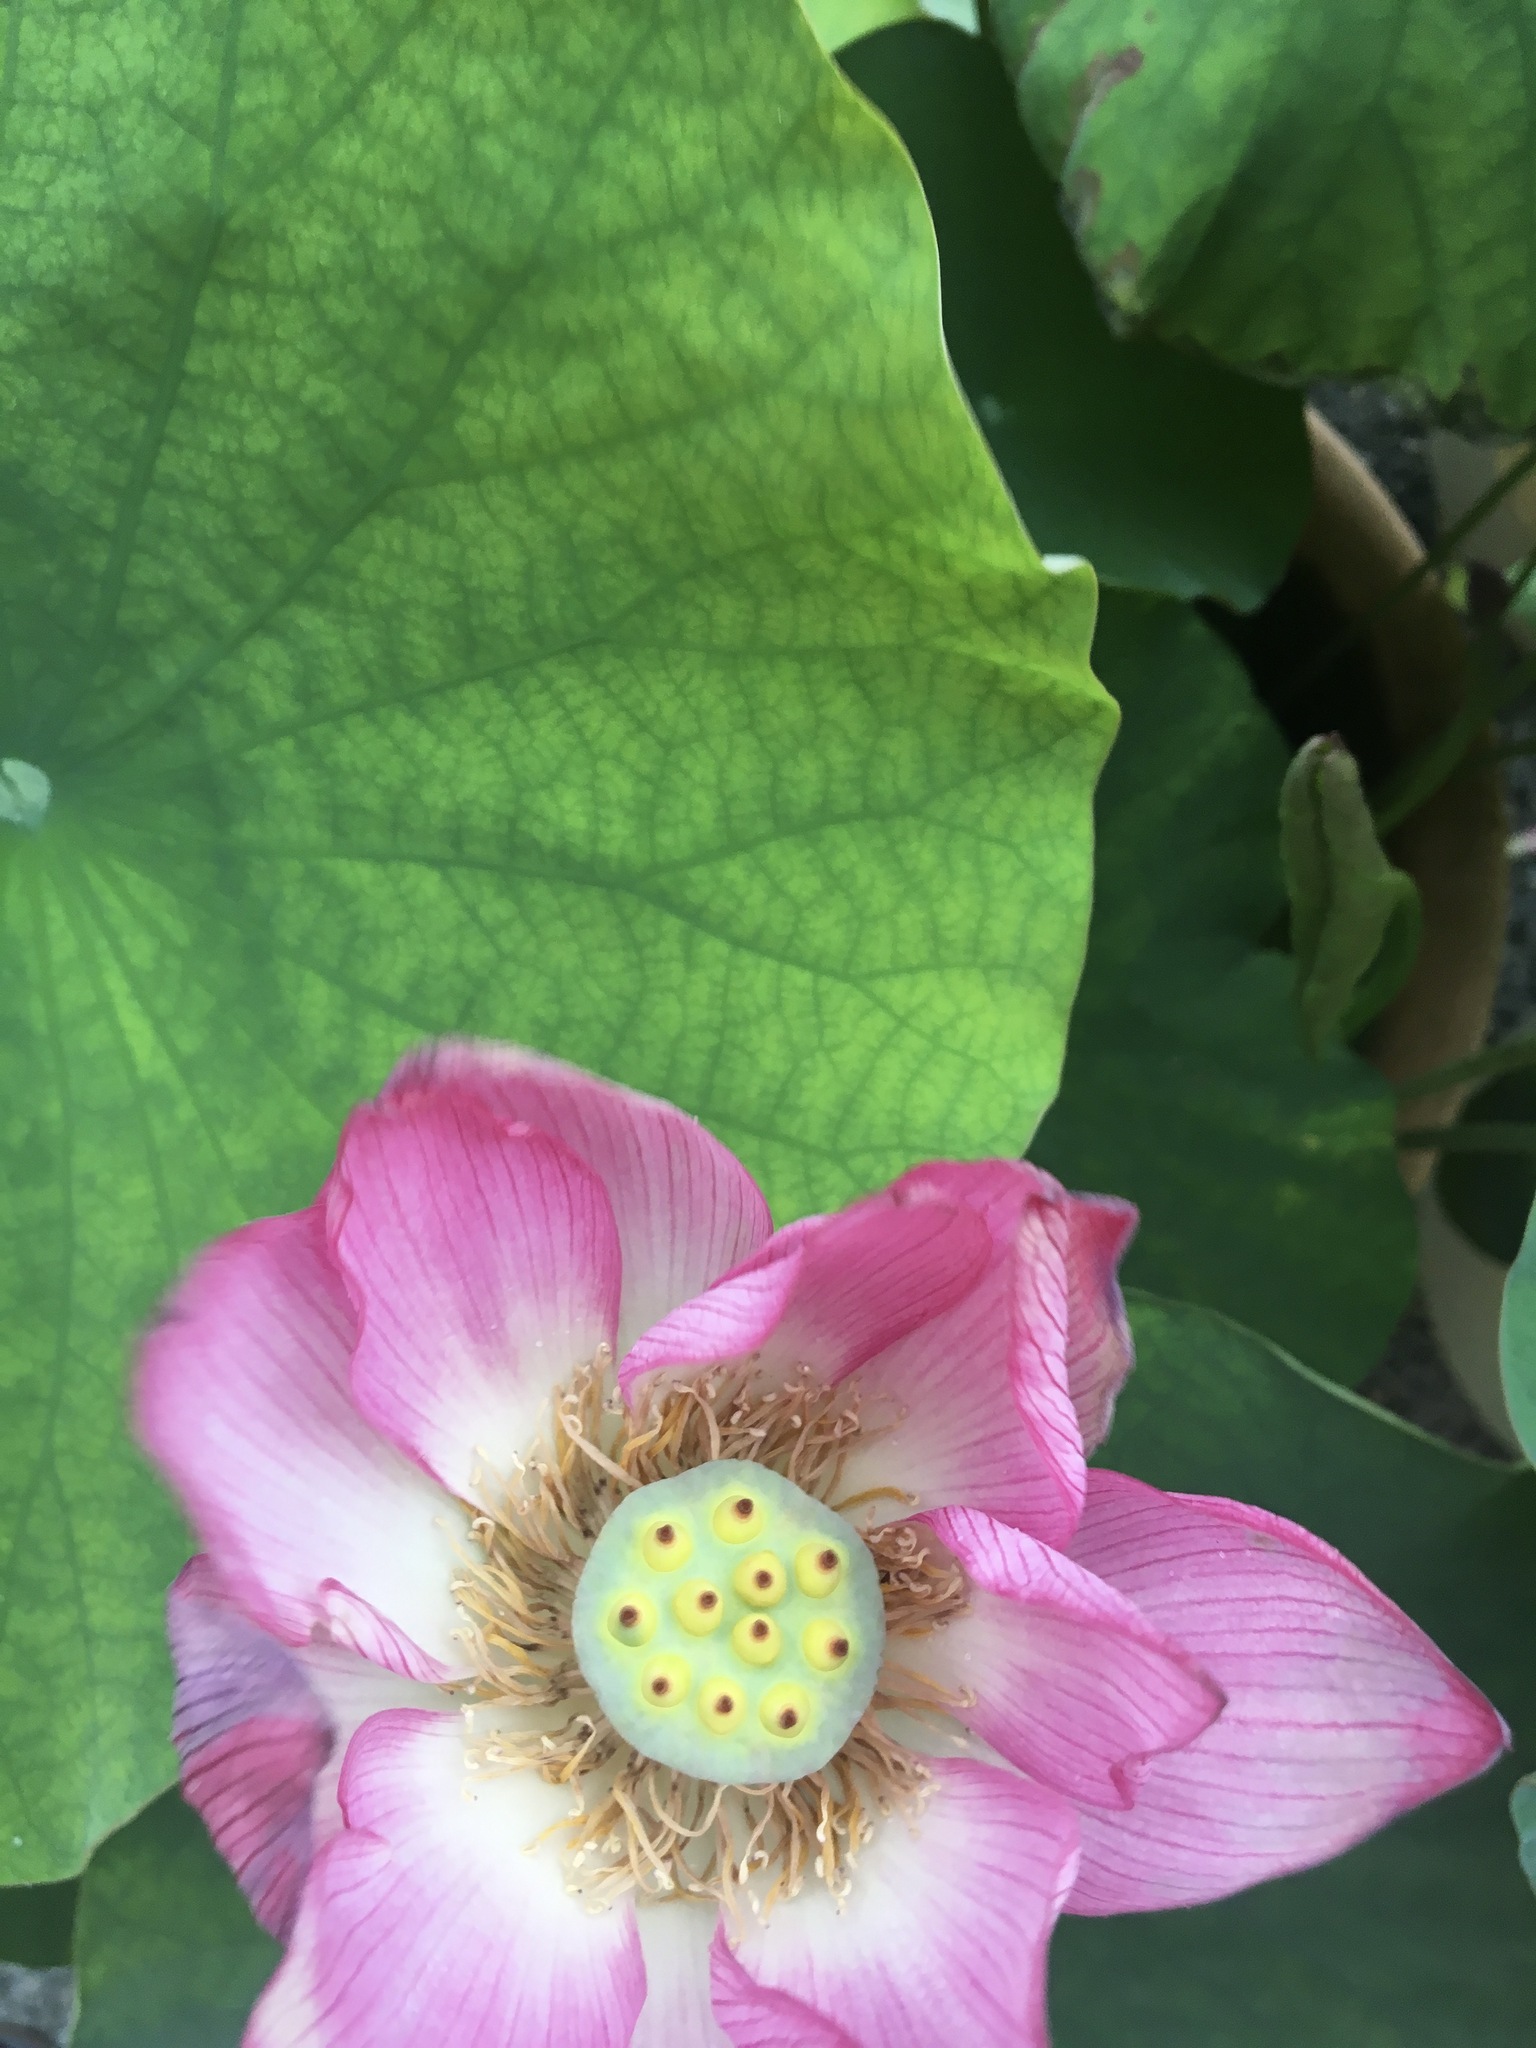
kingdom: Plantae
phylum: Tracheophyta
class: Magnoliopsida
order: Proteales
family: Nelumbonaceae
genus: Nelumbo
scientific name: Nelumbo nucifera
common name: Sacred lotus
